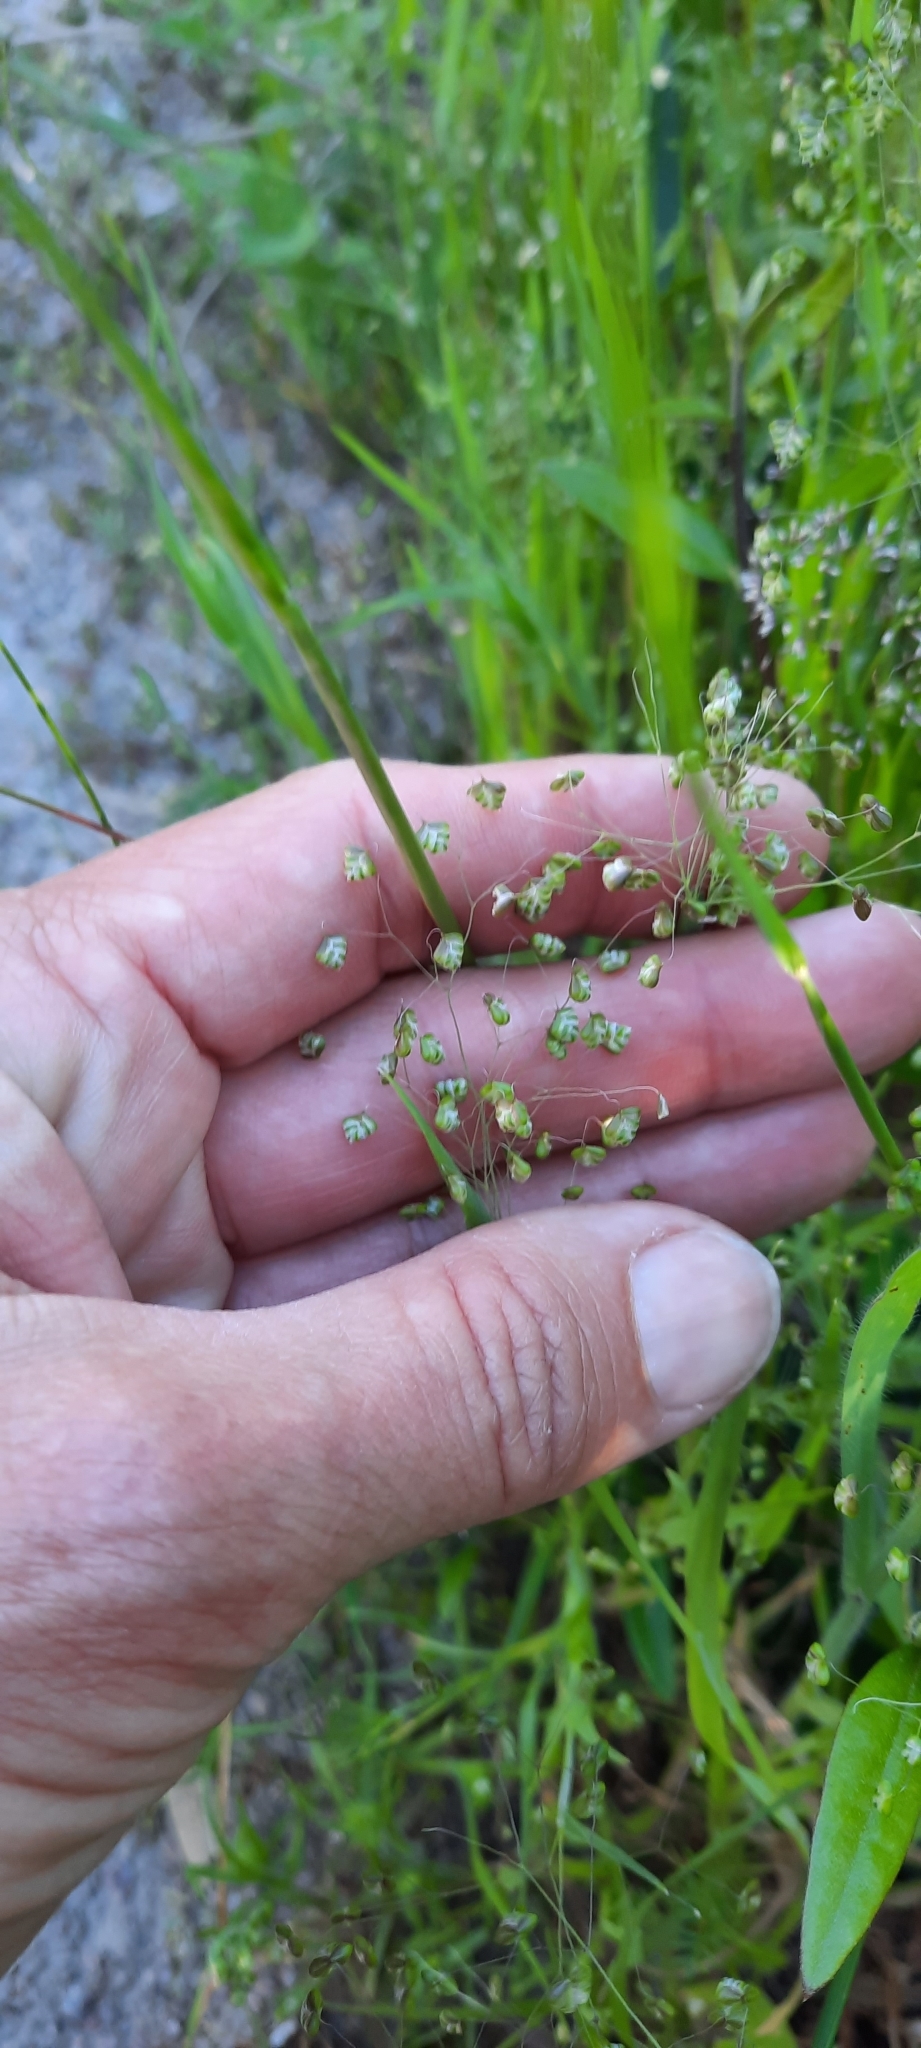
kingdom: Plantae
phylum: Tracheophyta
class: Liliopsida
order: Poales
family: Poaceae
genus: Briza
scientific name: Briza minor
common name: Lesser quaking-grass
